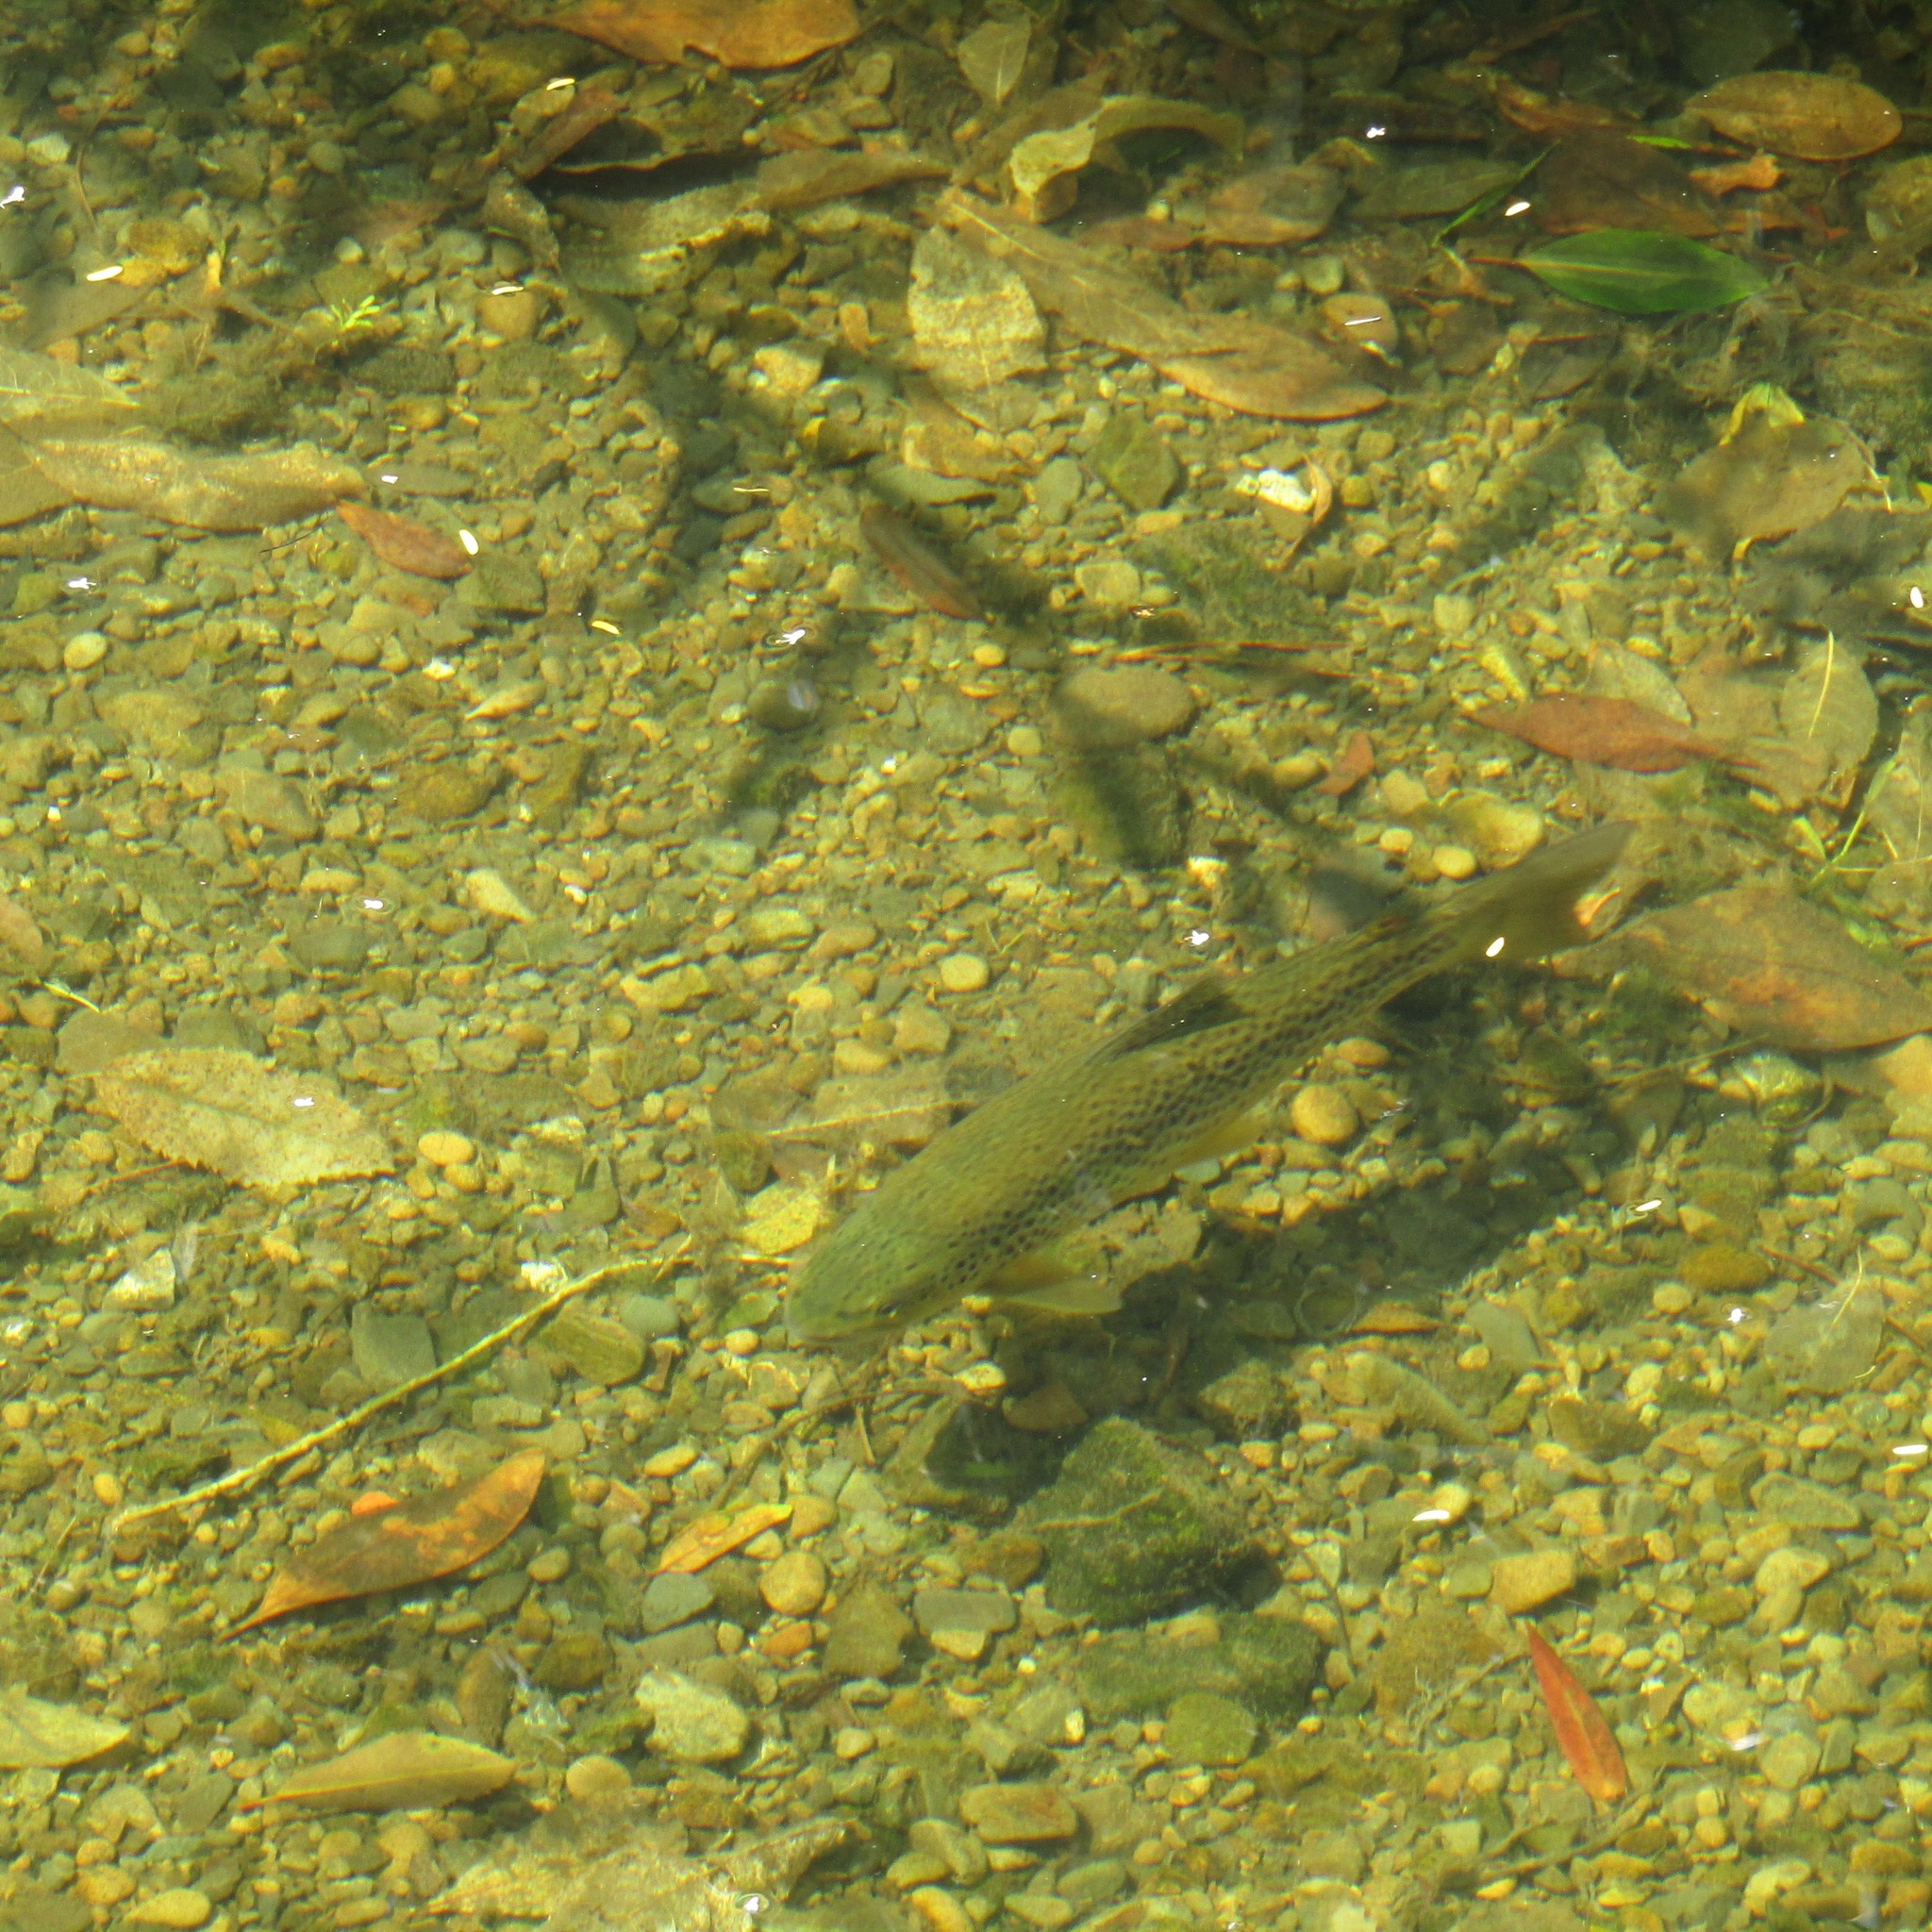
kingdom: Animalia
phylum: Chordata
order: Salmoniformes
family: Salmonidae
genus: Salmo
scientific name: Salmo trutta
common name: Brown trout
